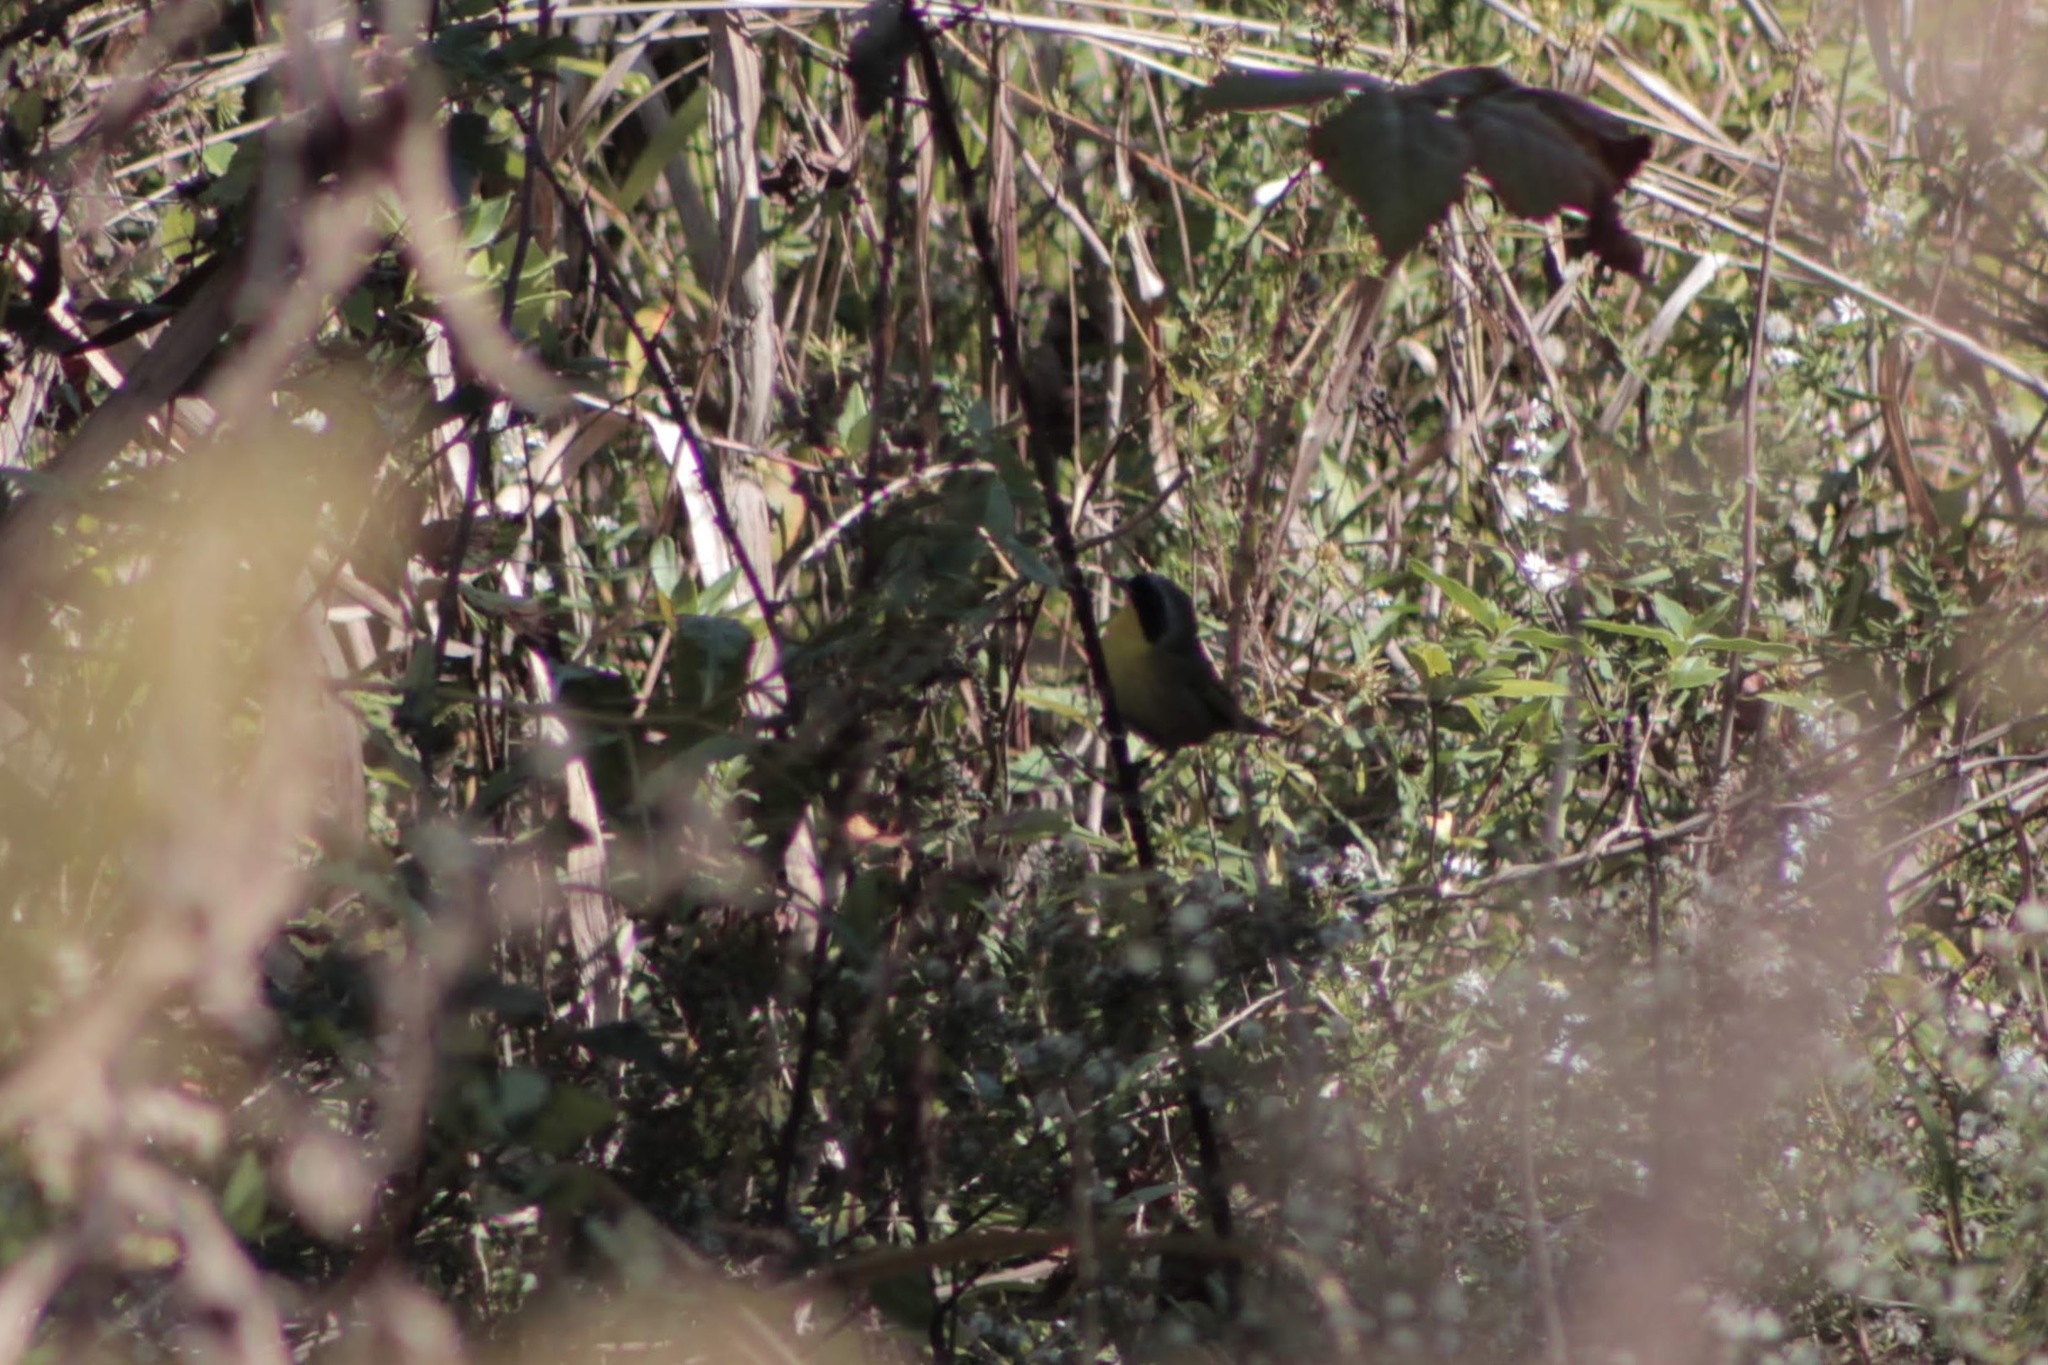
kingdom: Animalia
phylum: Chordata
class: Aves
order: Passeriformes
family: Parulidae
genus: Geothlypis
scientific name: Geothlypis trichas
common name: Common yellowthroat
